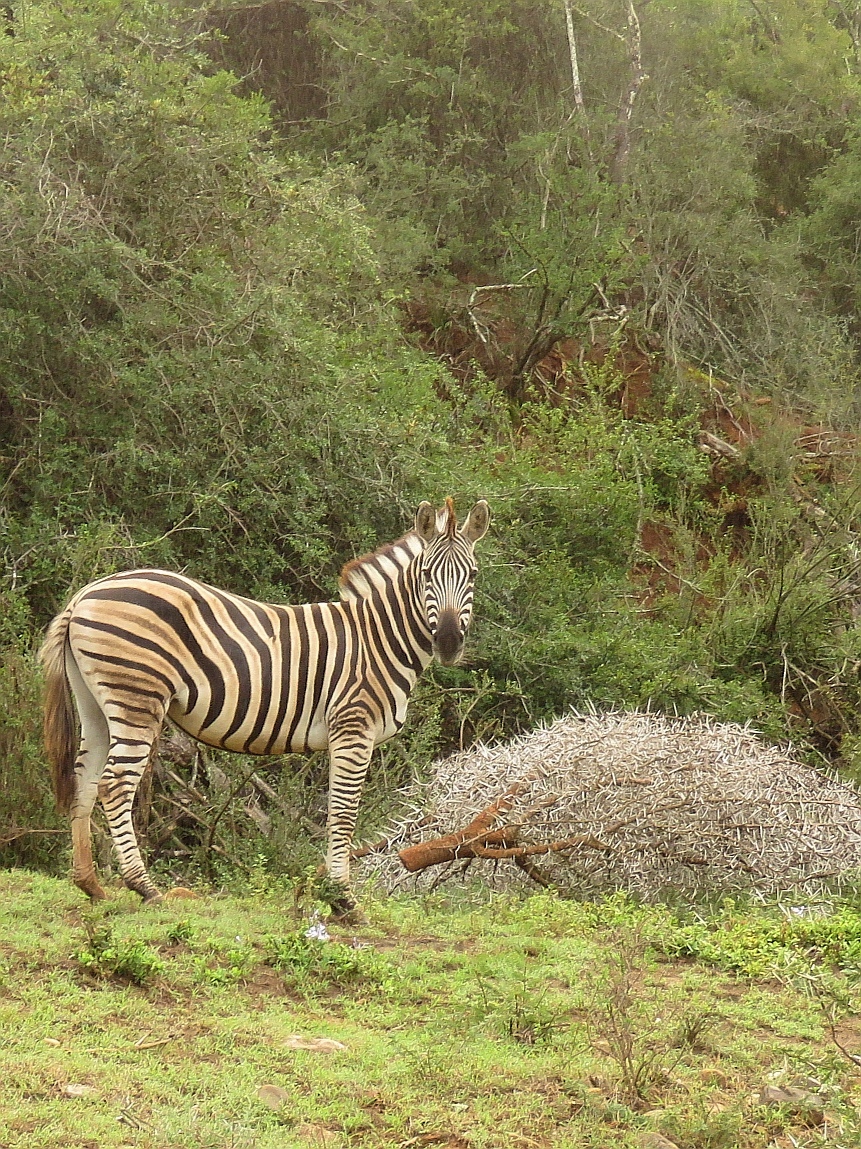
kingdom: Animalia
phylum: Chordata
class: Mammalia
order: Perissodactyla
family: Equidae
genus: Equus
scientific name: Equus quagga
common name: Plains zebra
